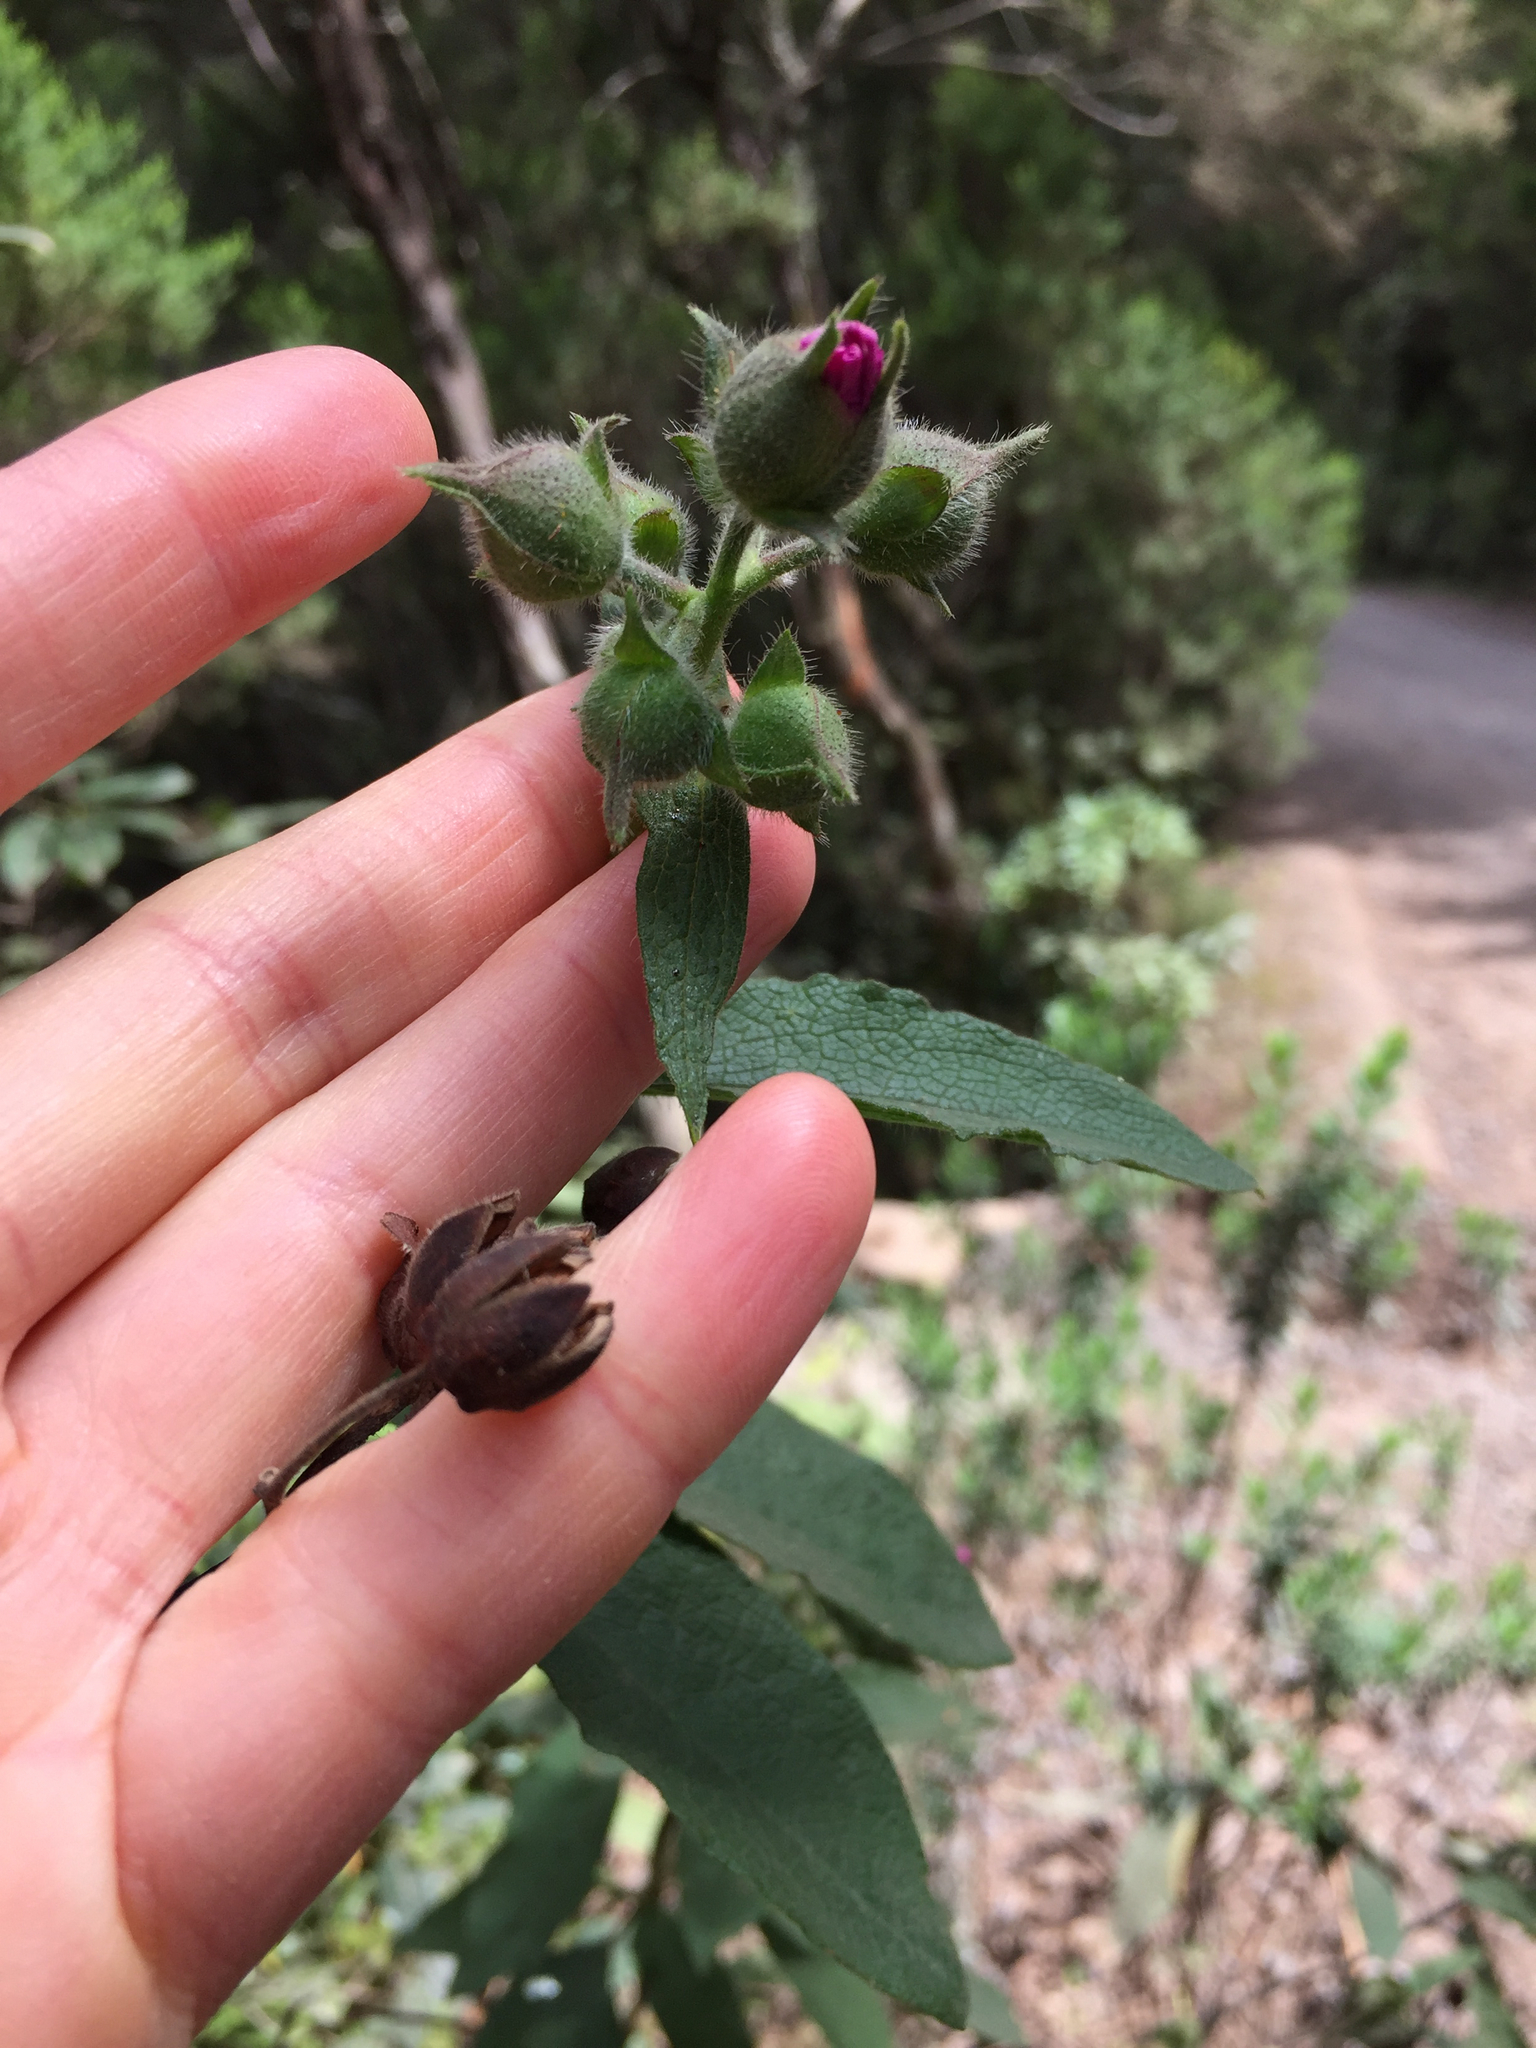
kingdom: Plantae
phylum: Tracheophyta
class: Magnoliopsida
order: Malvales
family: Cistaceae
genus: Cistus
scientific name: Cistus symphytifolius
